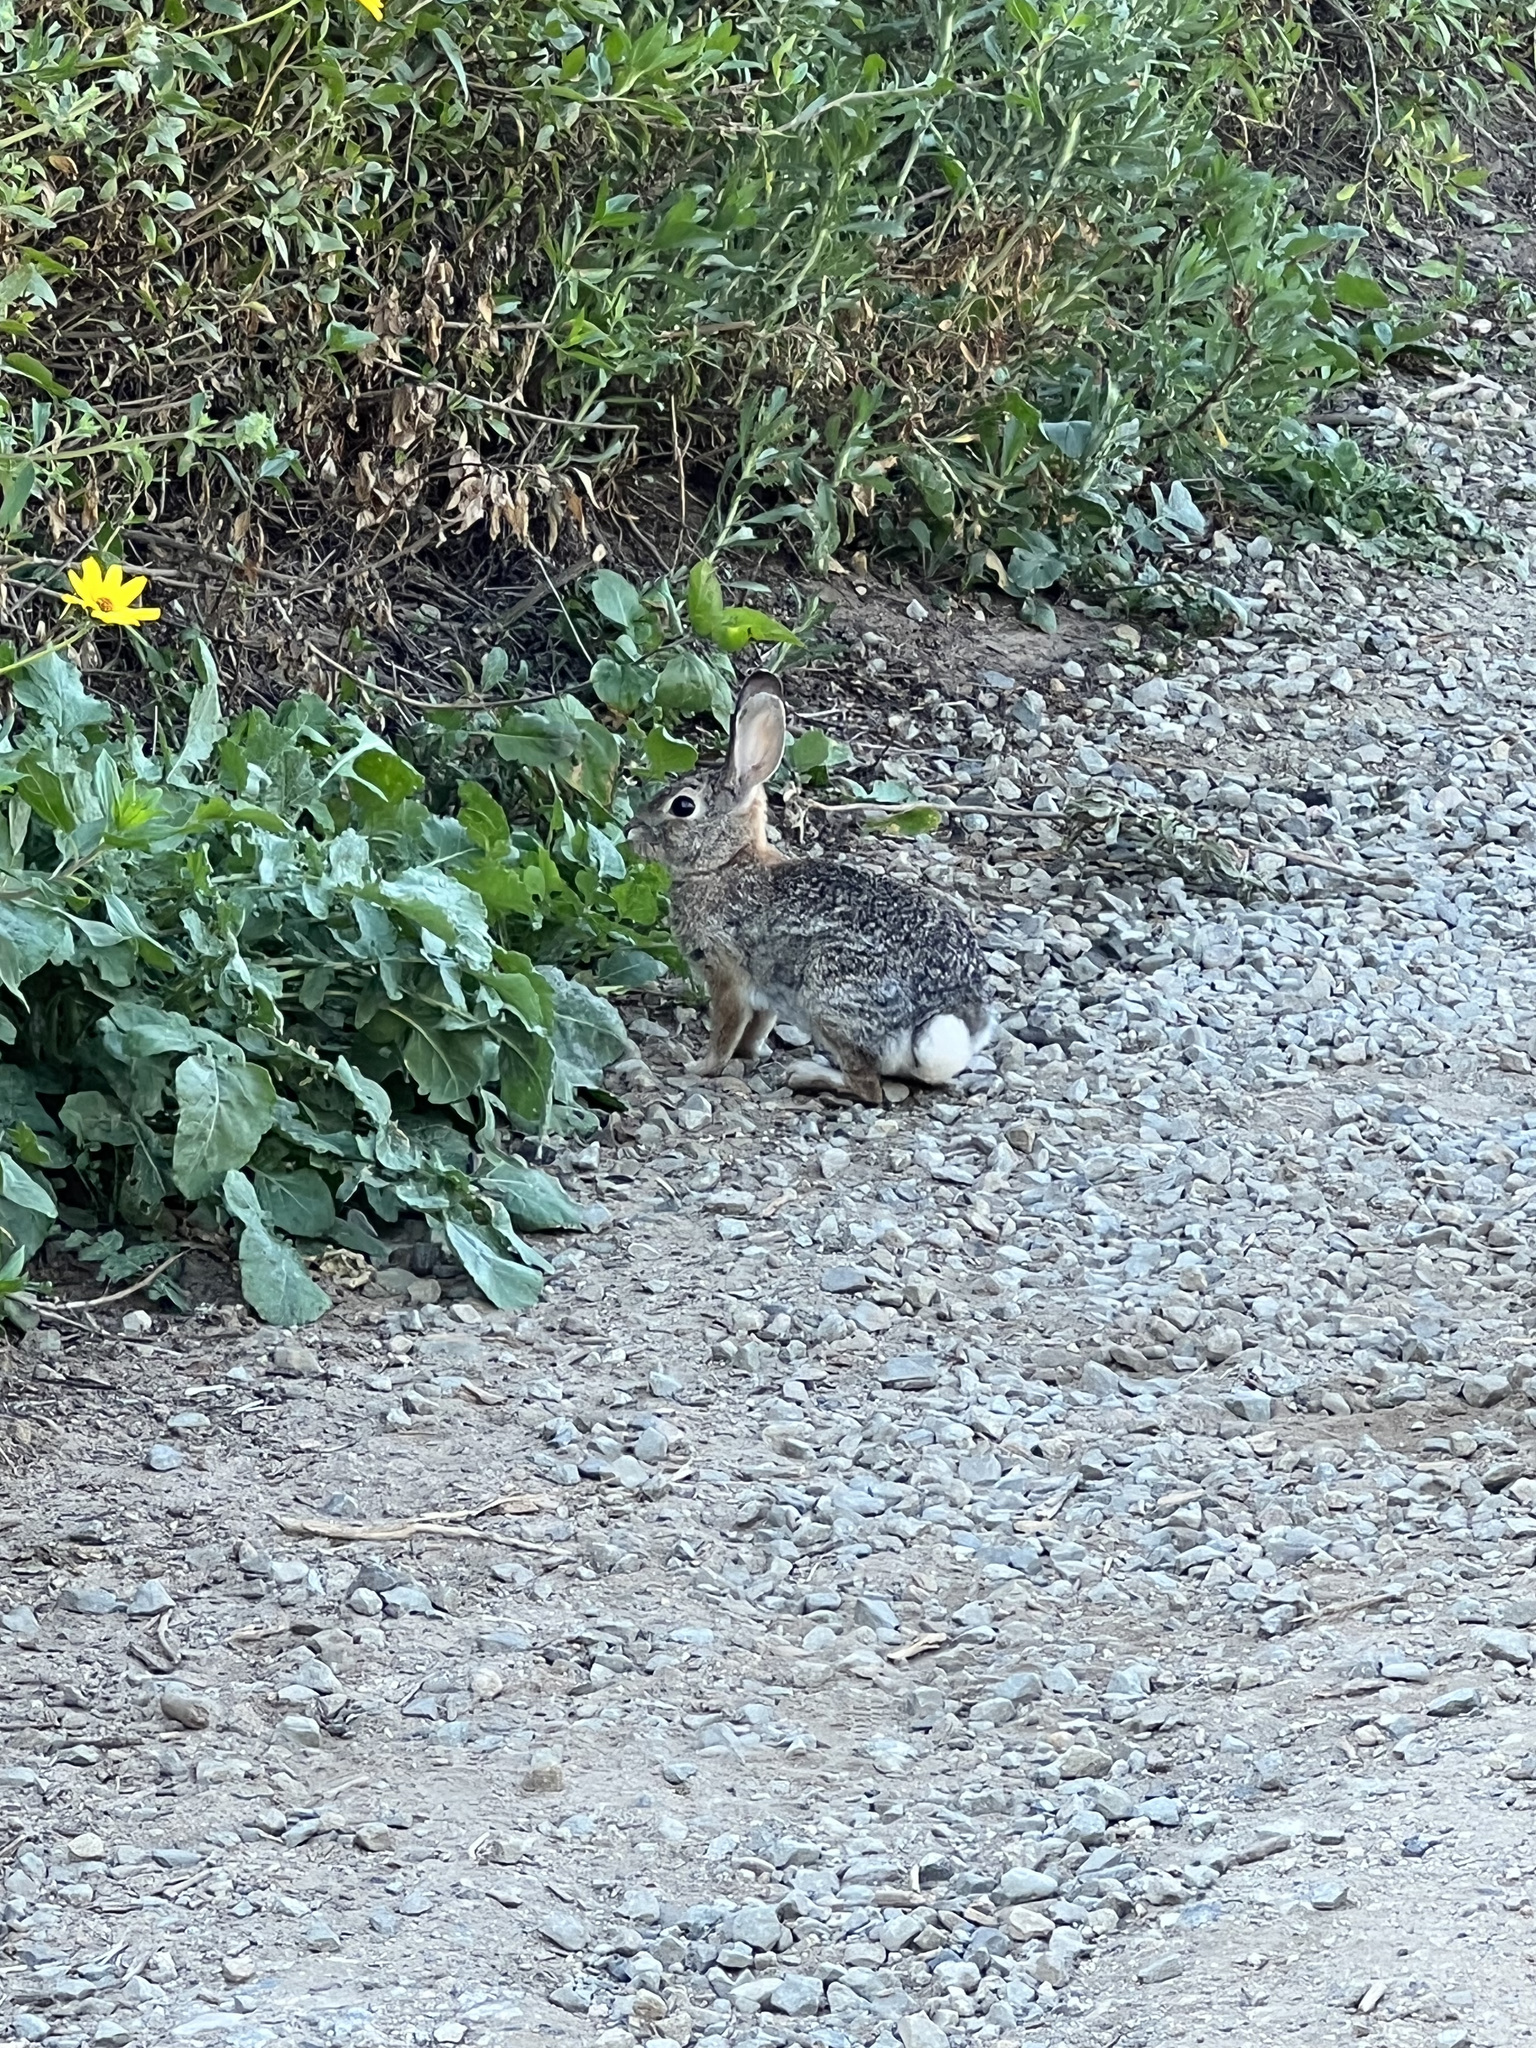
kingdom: Animalia
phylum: Chordata
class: Mammalia
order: Lagomorpha
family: Leporidae
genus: Sylvilagus
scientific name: Sylvilagus audubonii
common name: Desert cottontail
